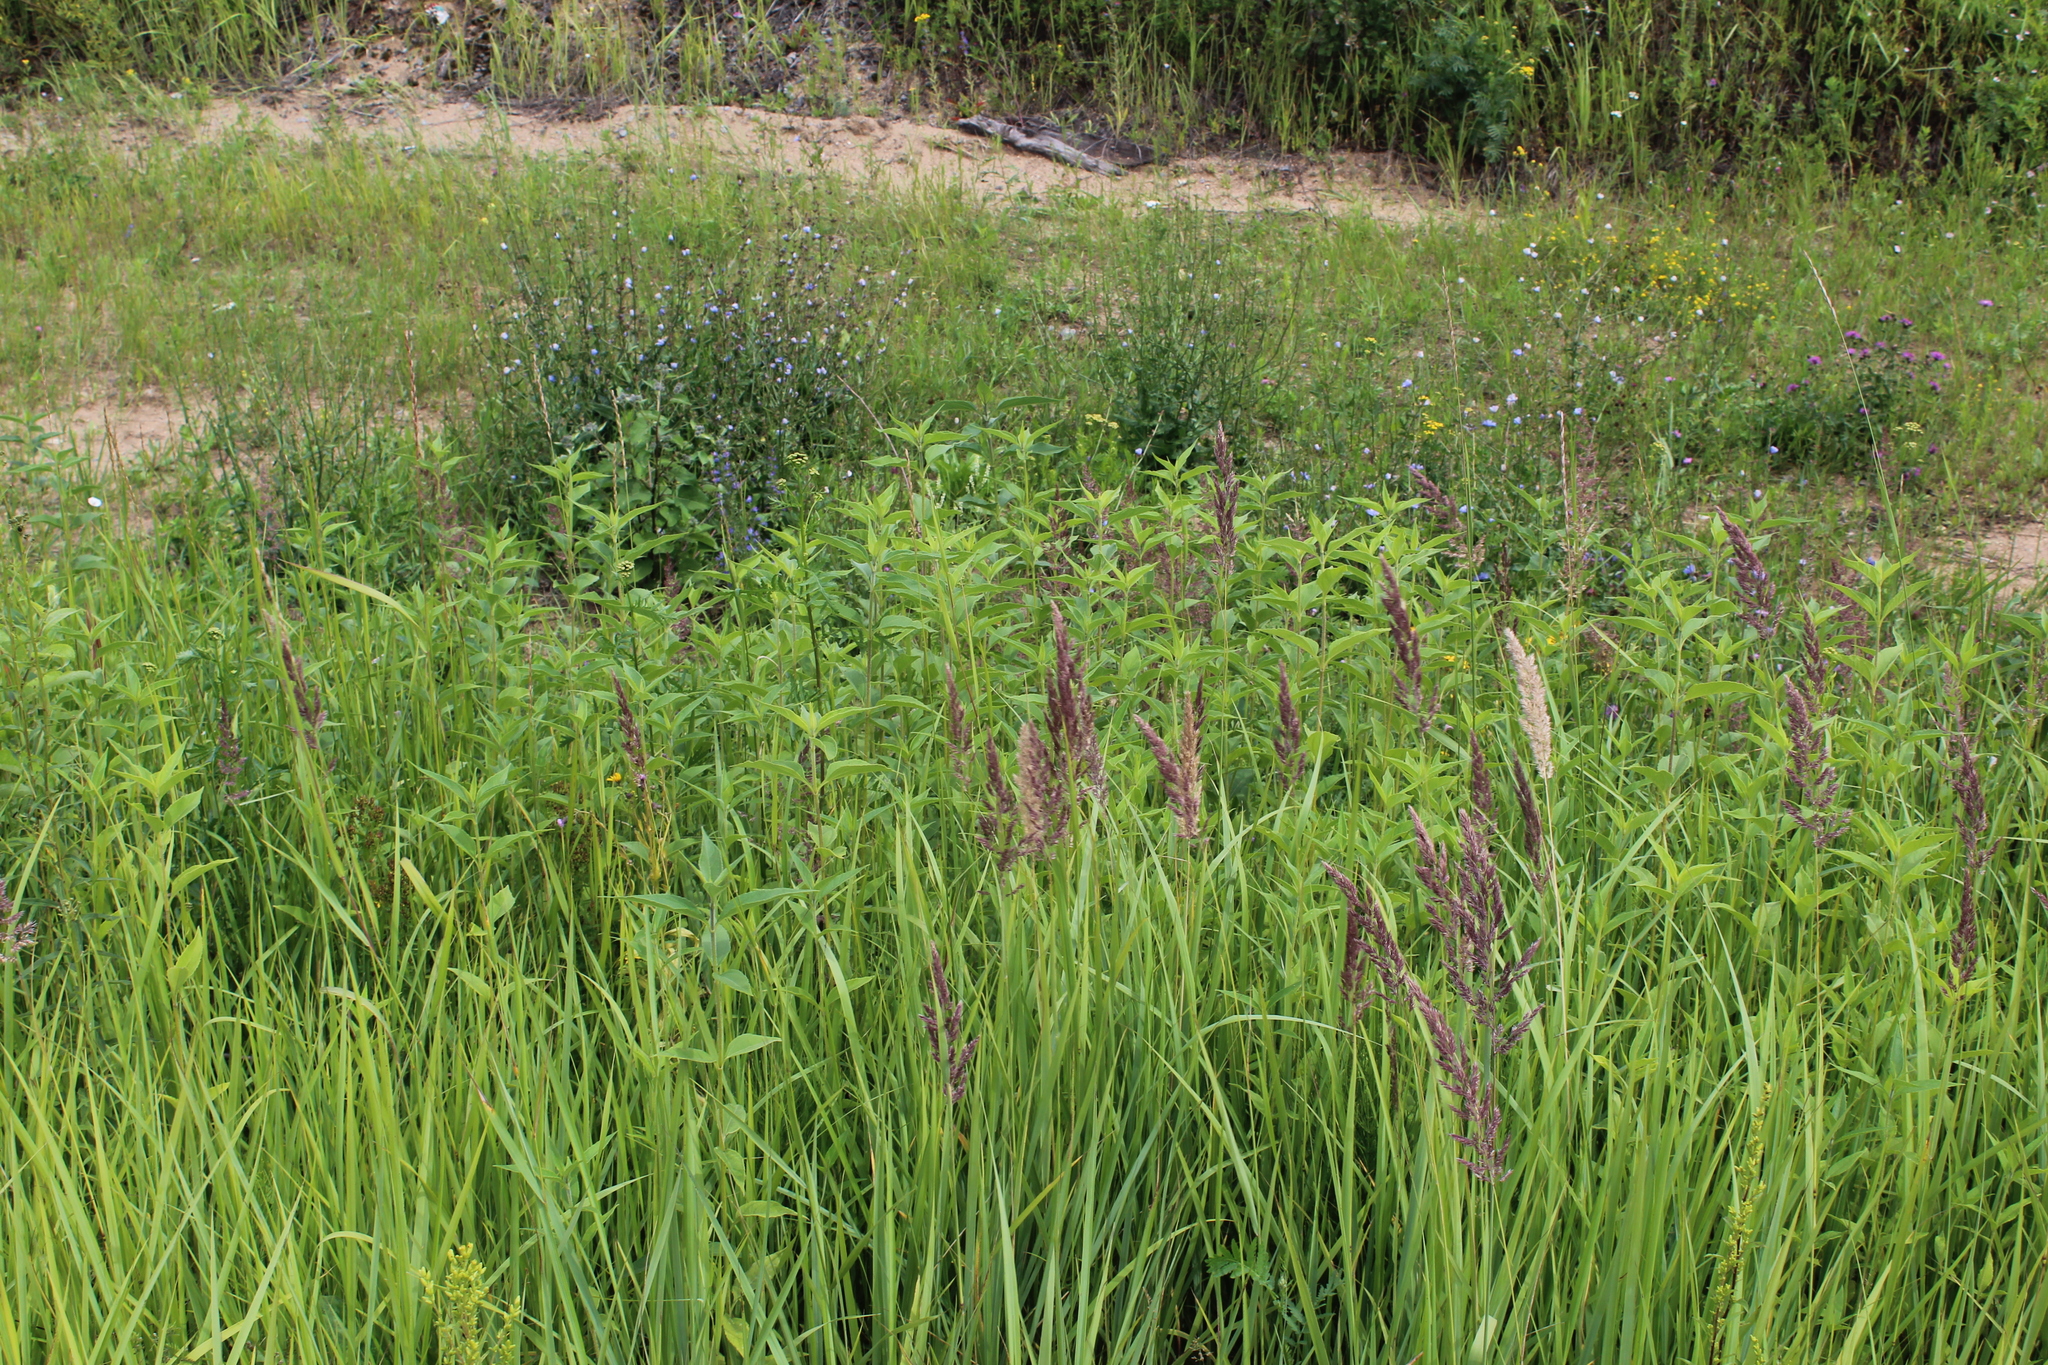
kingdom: Plantae
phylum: Tracheophyta
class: Magnoliopsida
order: Asterales
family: Asteraceae
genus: Helianthus
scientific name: Helianthus tuberosus
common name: Jerusalem artichoke
